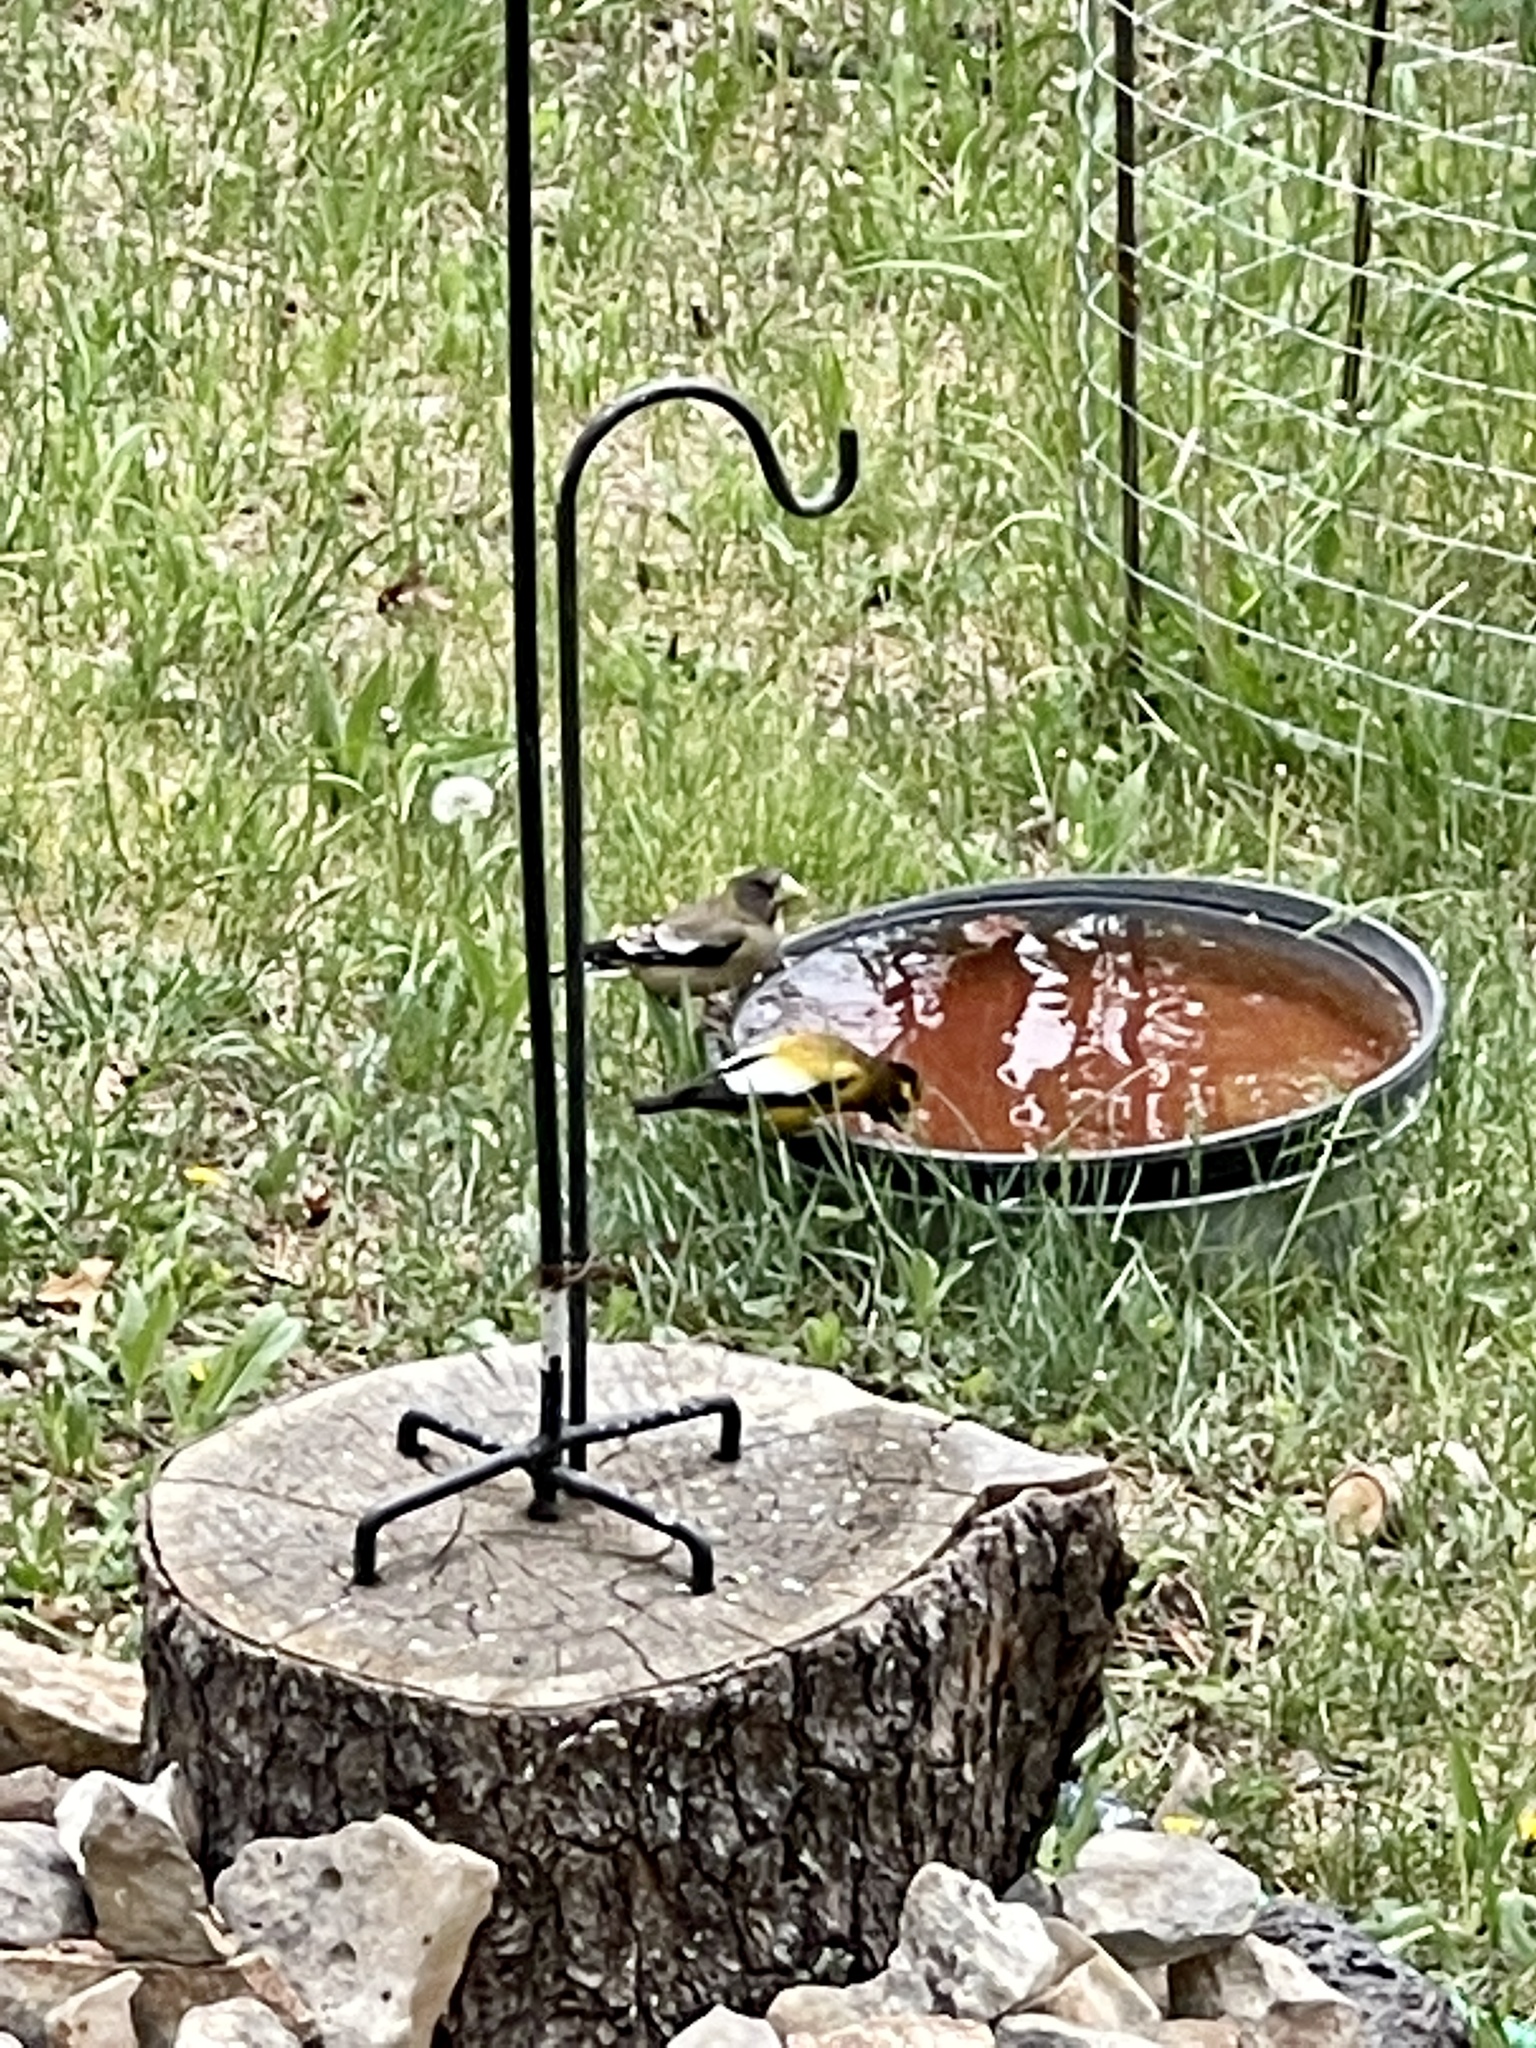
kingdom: Animalia
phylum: Chordata
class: Aves
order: Passeriformes
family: Fringillidae
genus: Hesperiphona
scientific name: Hesperiphona vespertina
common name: Evening grosbeak
